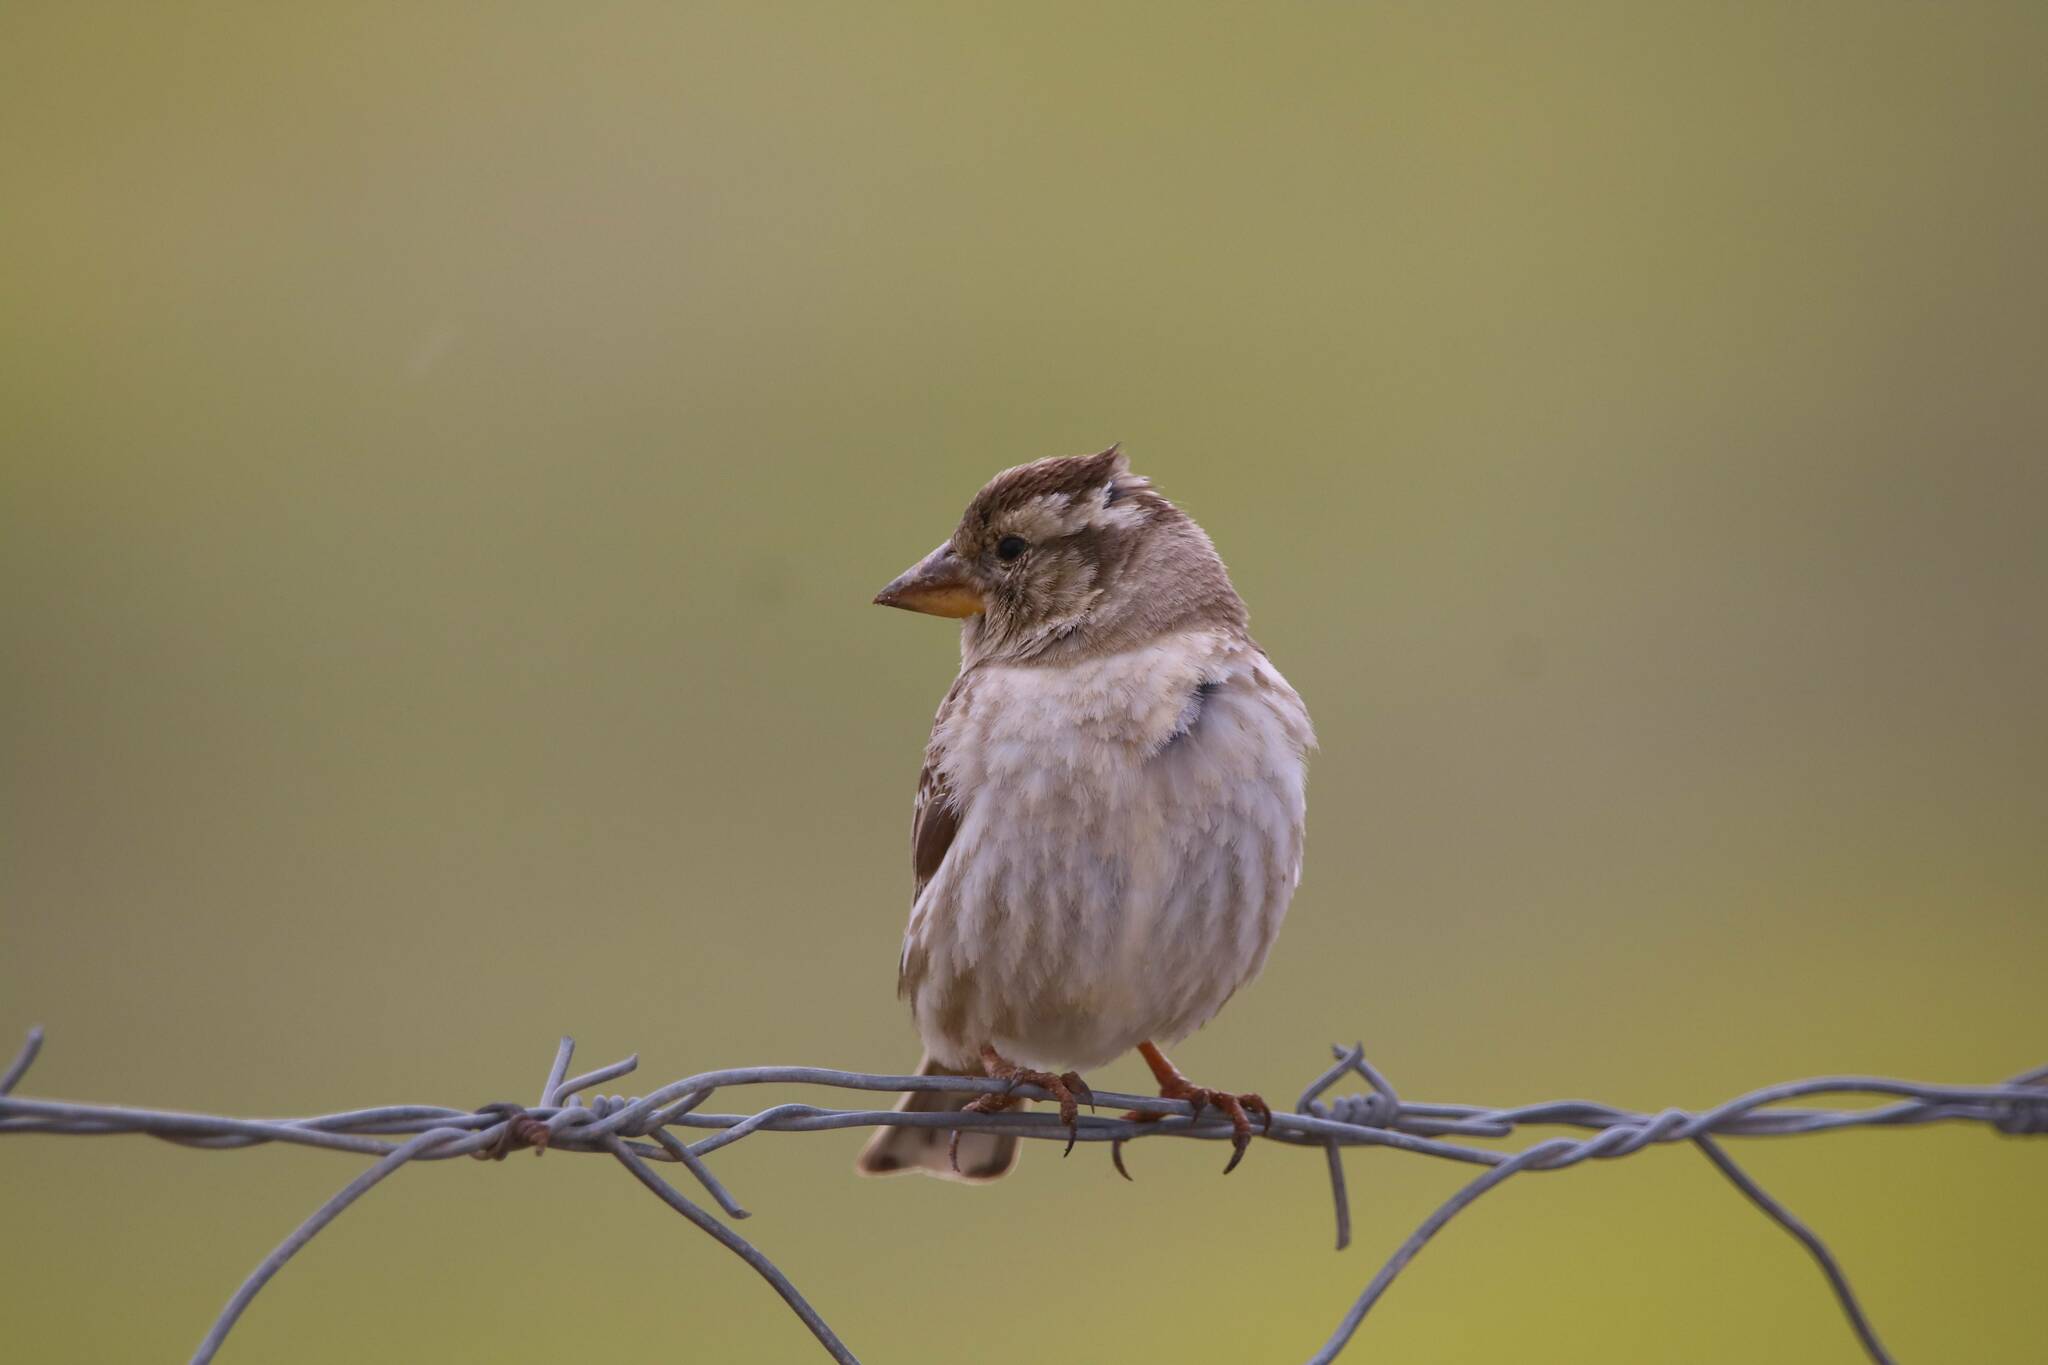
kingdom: Animalia
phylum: Chordata
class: Aves
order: Passeriformes
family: Passeridae
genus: Petronia
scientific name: Petronia petronia
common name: Rock sparrow
